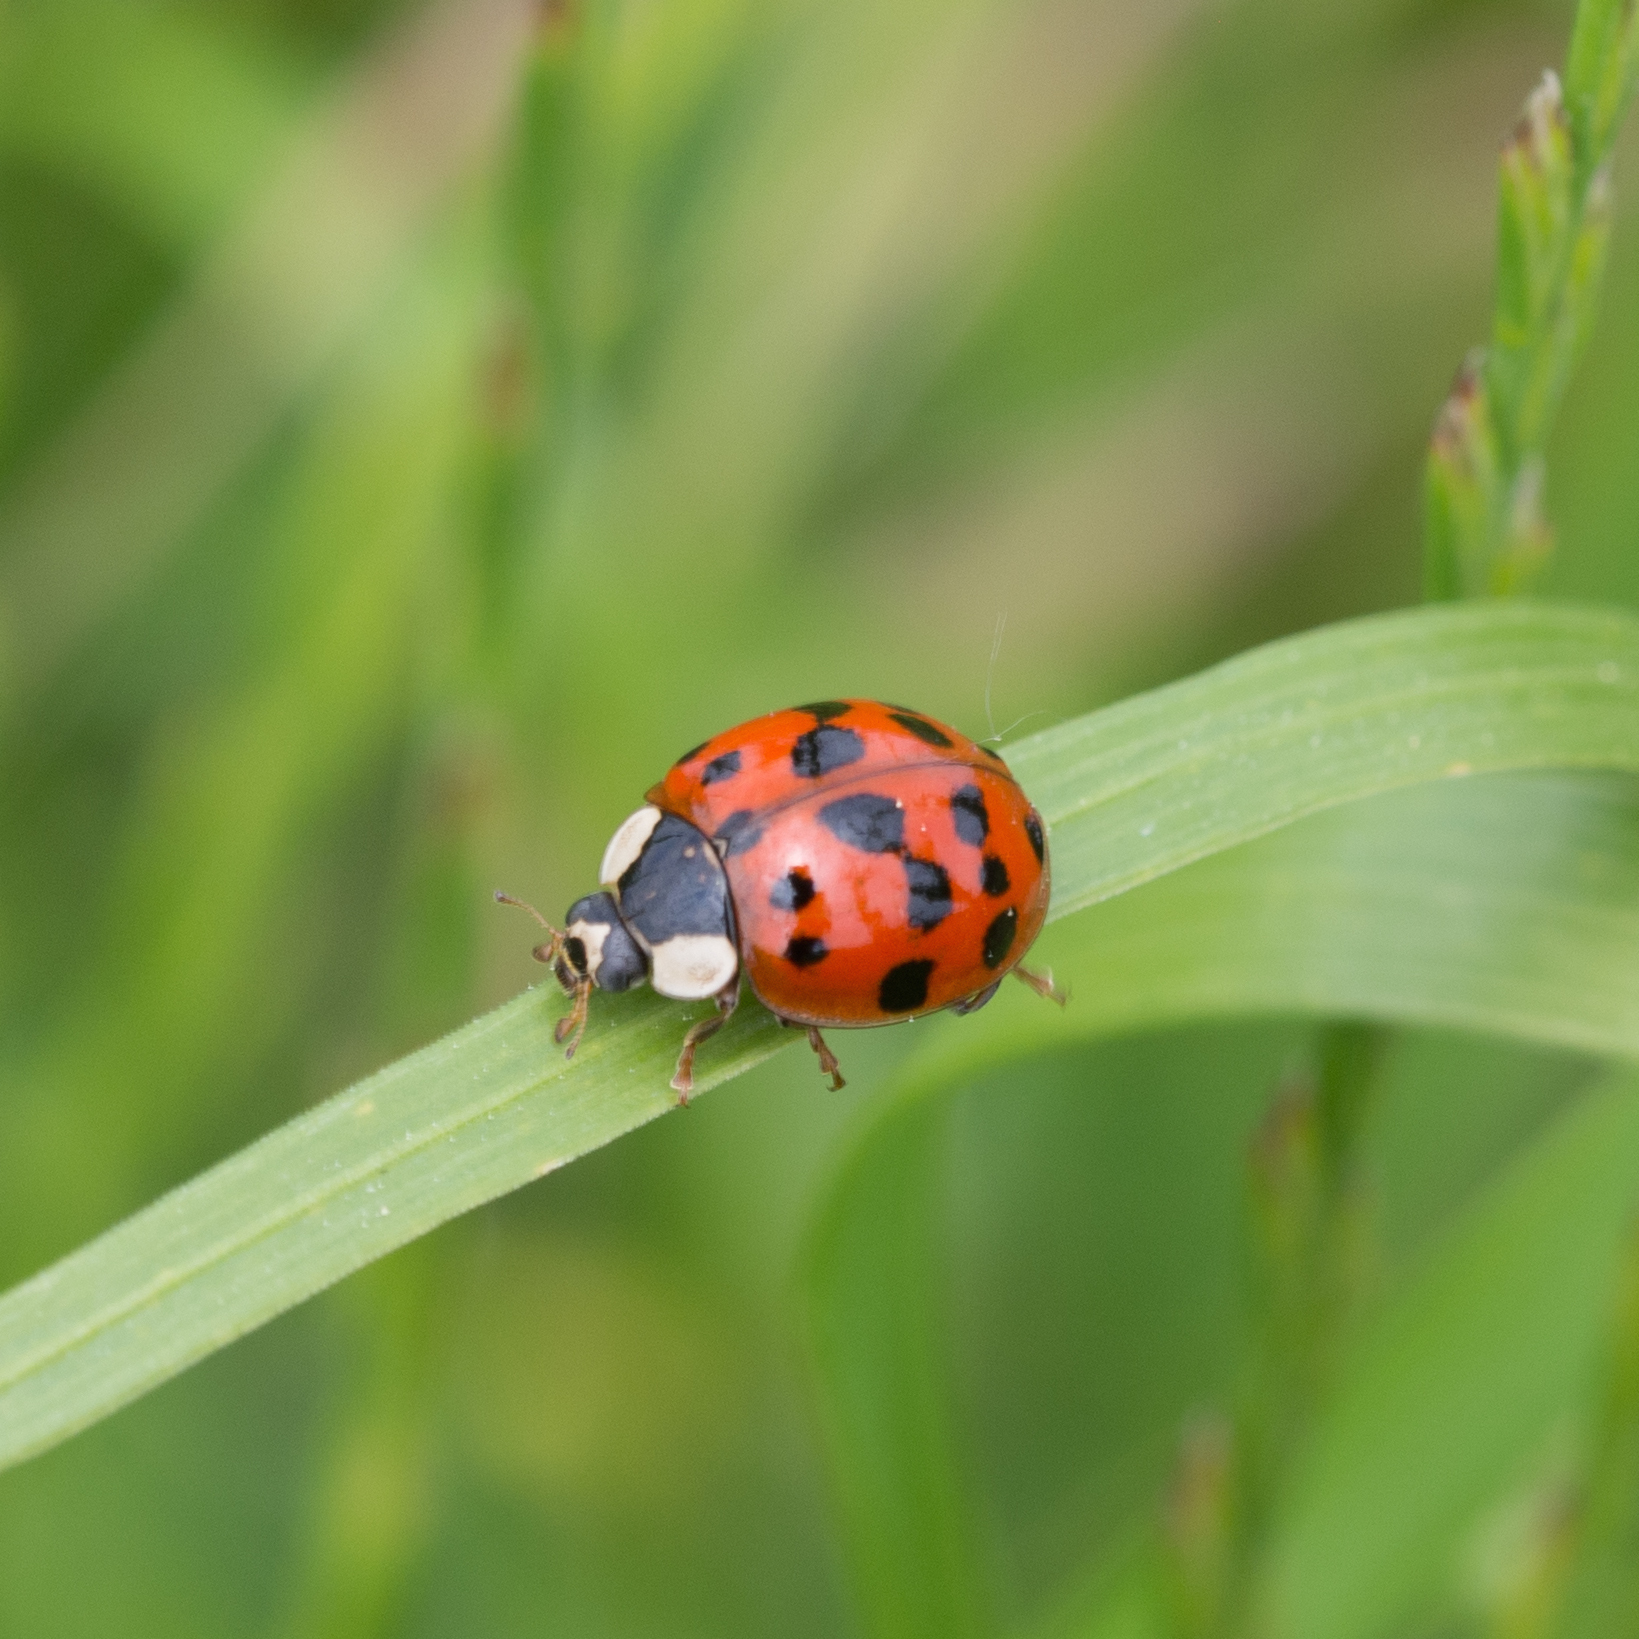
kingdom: Animalia
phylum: Arthropoda
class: Insecta
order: Coleoptera
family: Coccinellidae
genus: Harmonia
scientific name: Harmonia axyridis
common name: Harlequin ladybird
